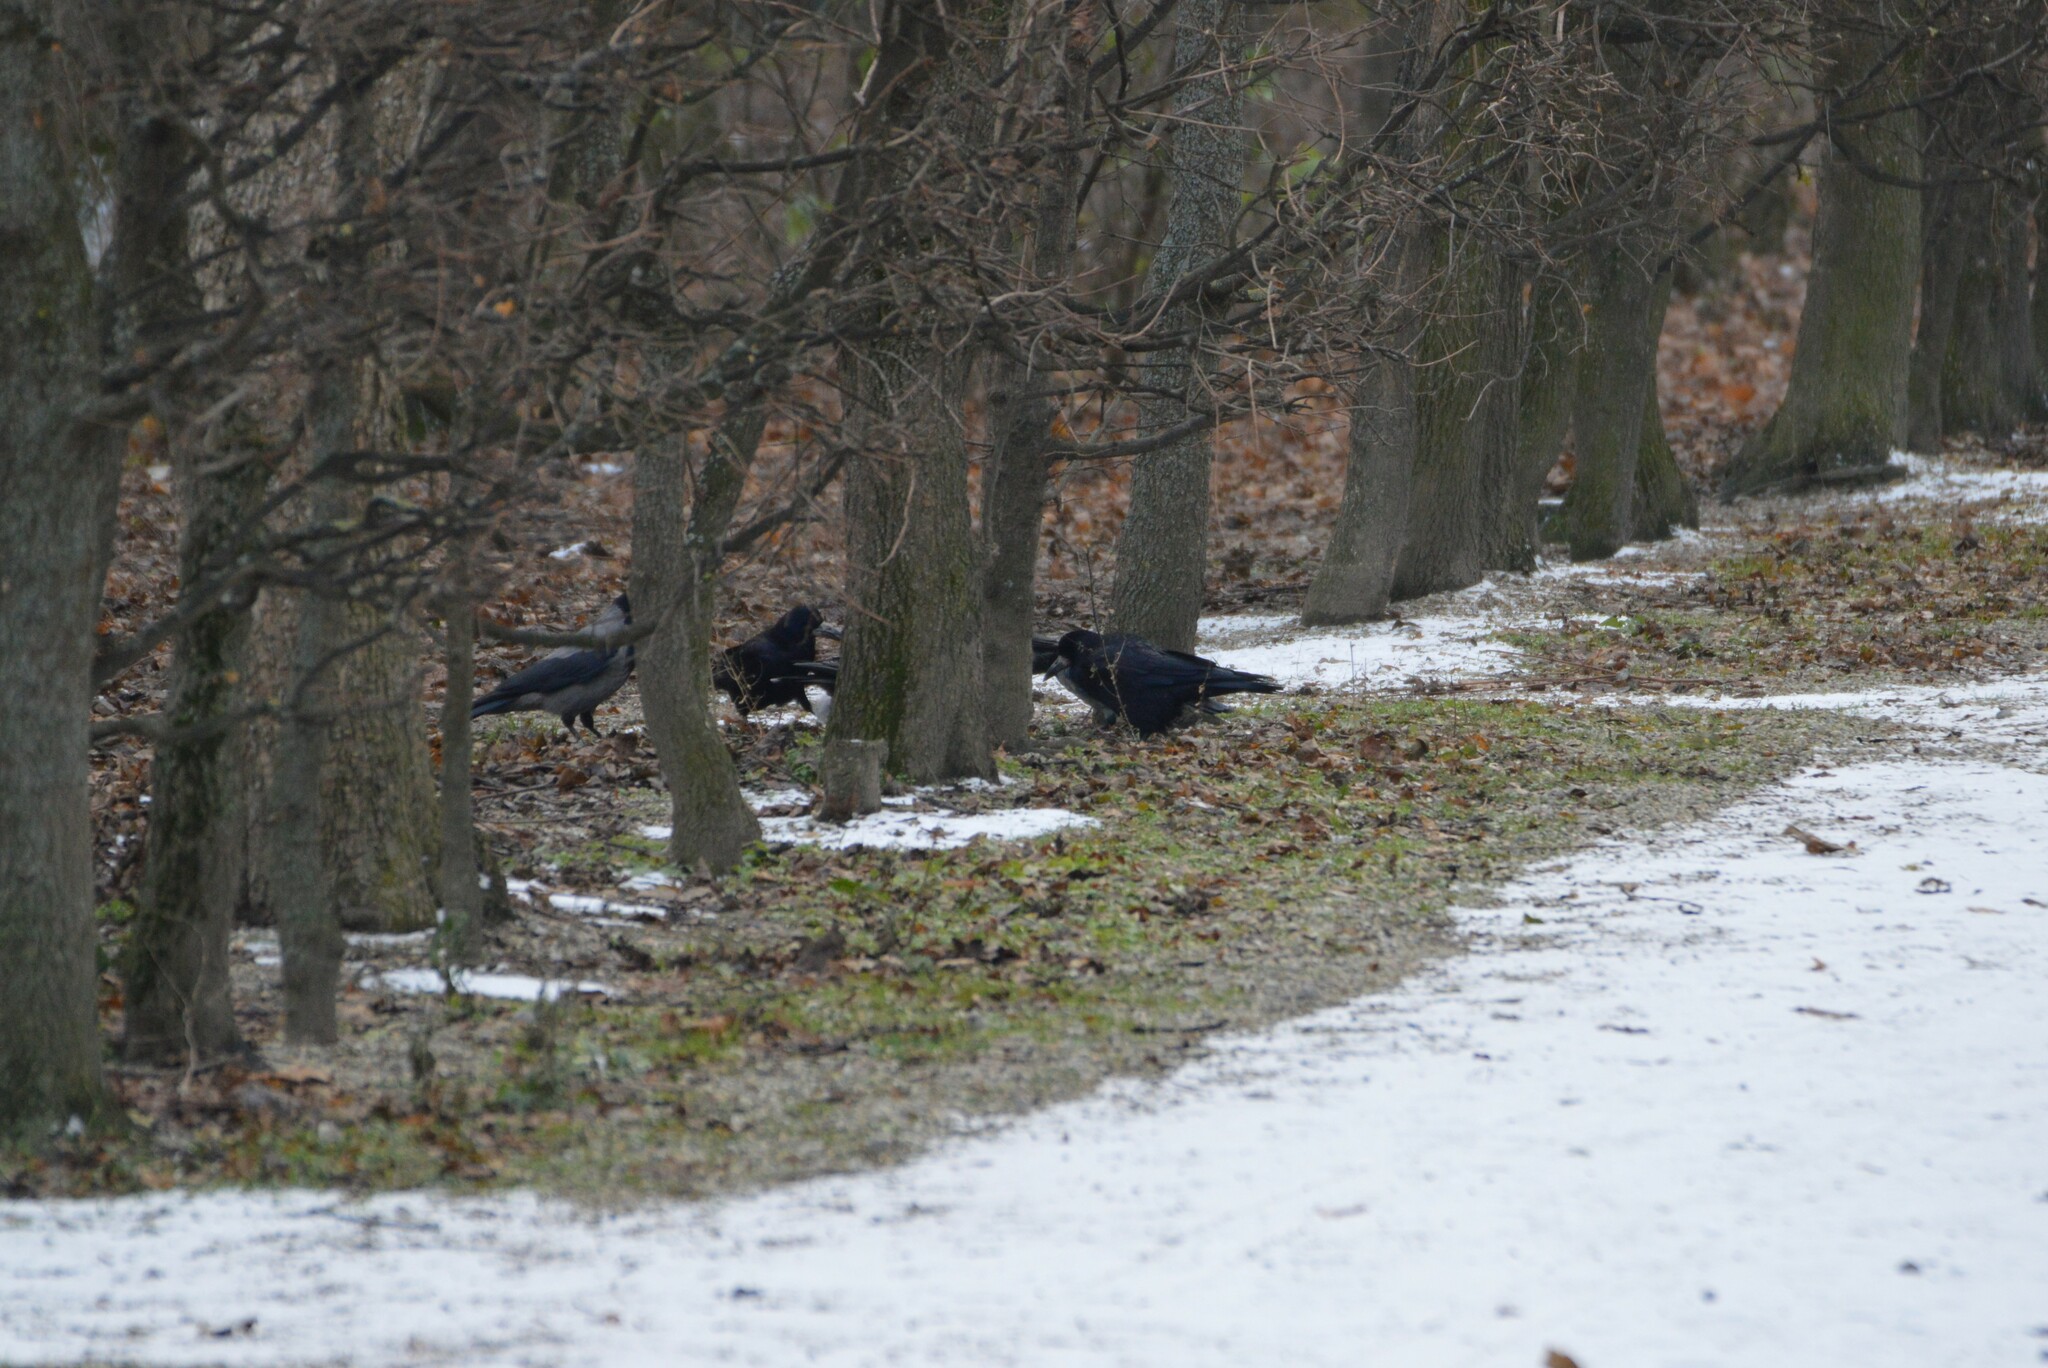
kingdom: Animalia
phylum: Chordata
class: Aves
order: Passeriformes
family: Corvidae
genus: Corvus
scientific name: Corvus frugilegus
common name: Rook
